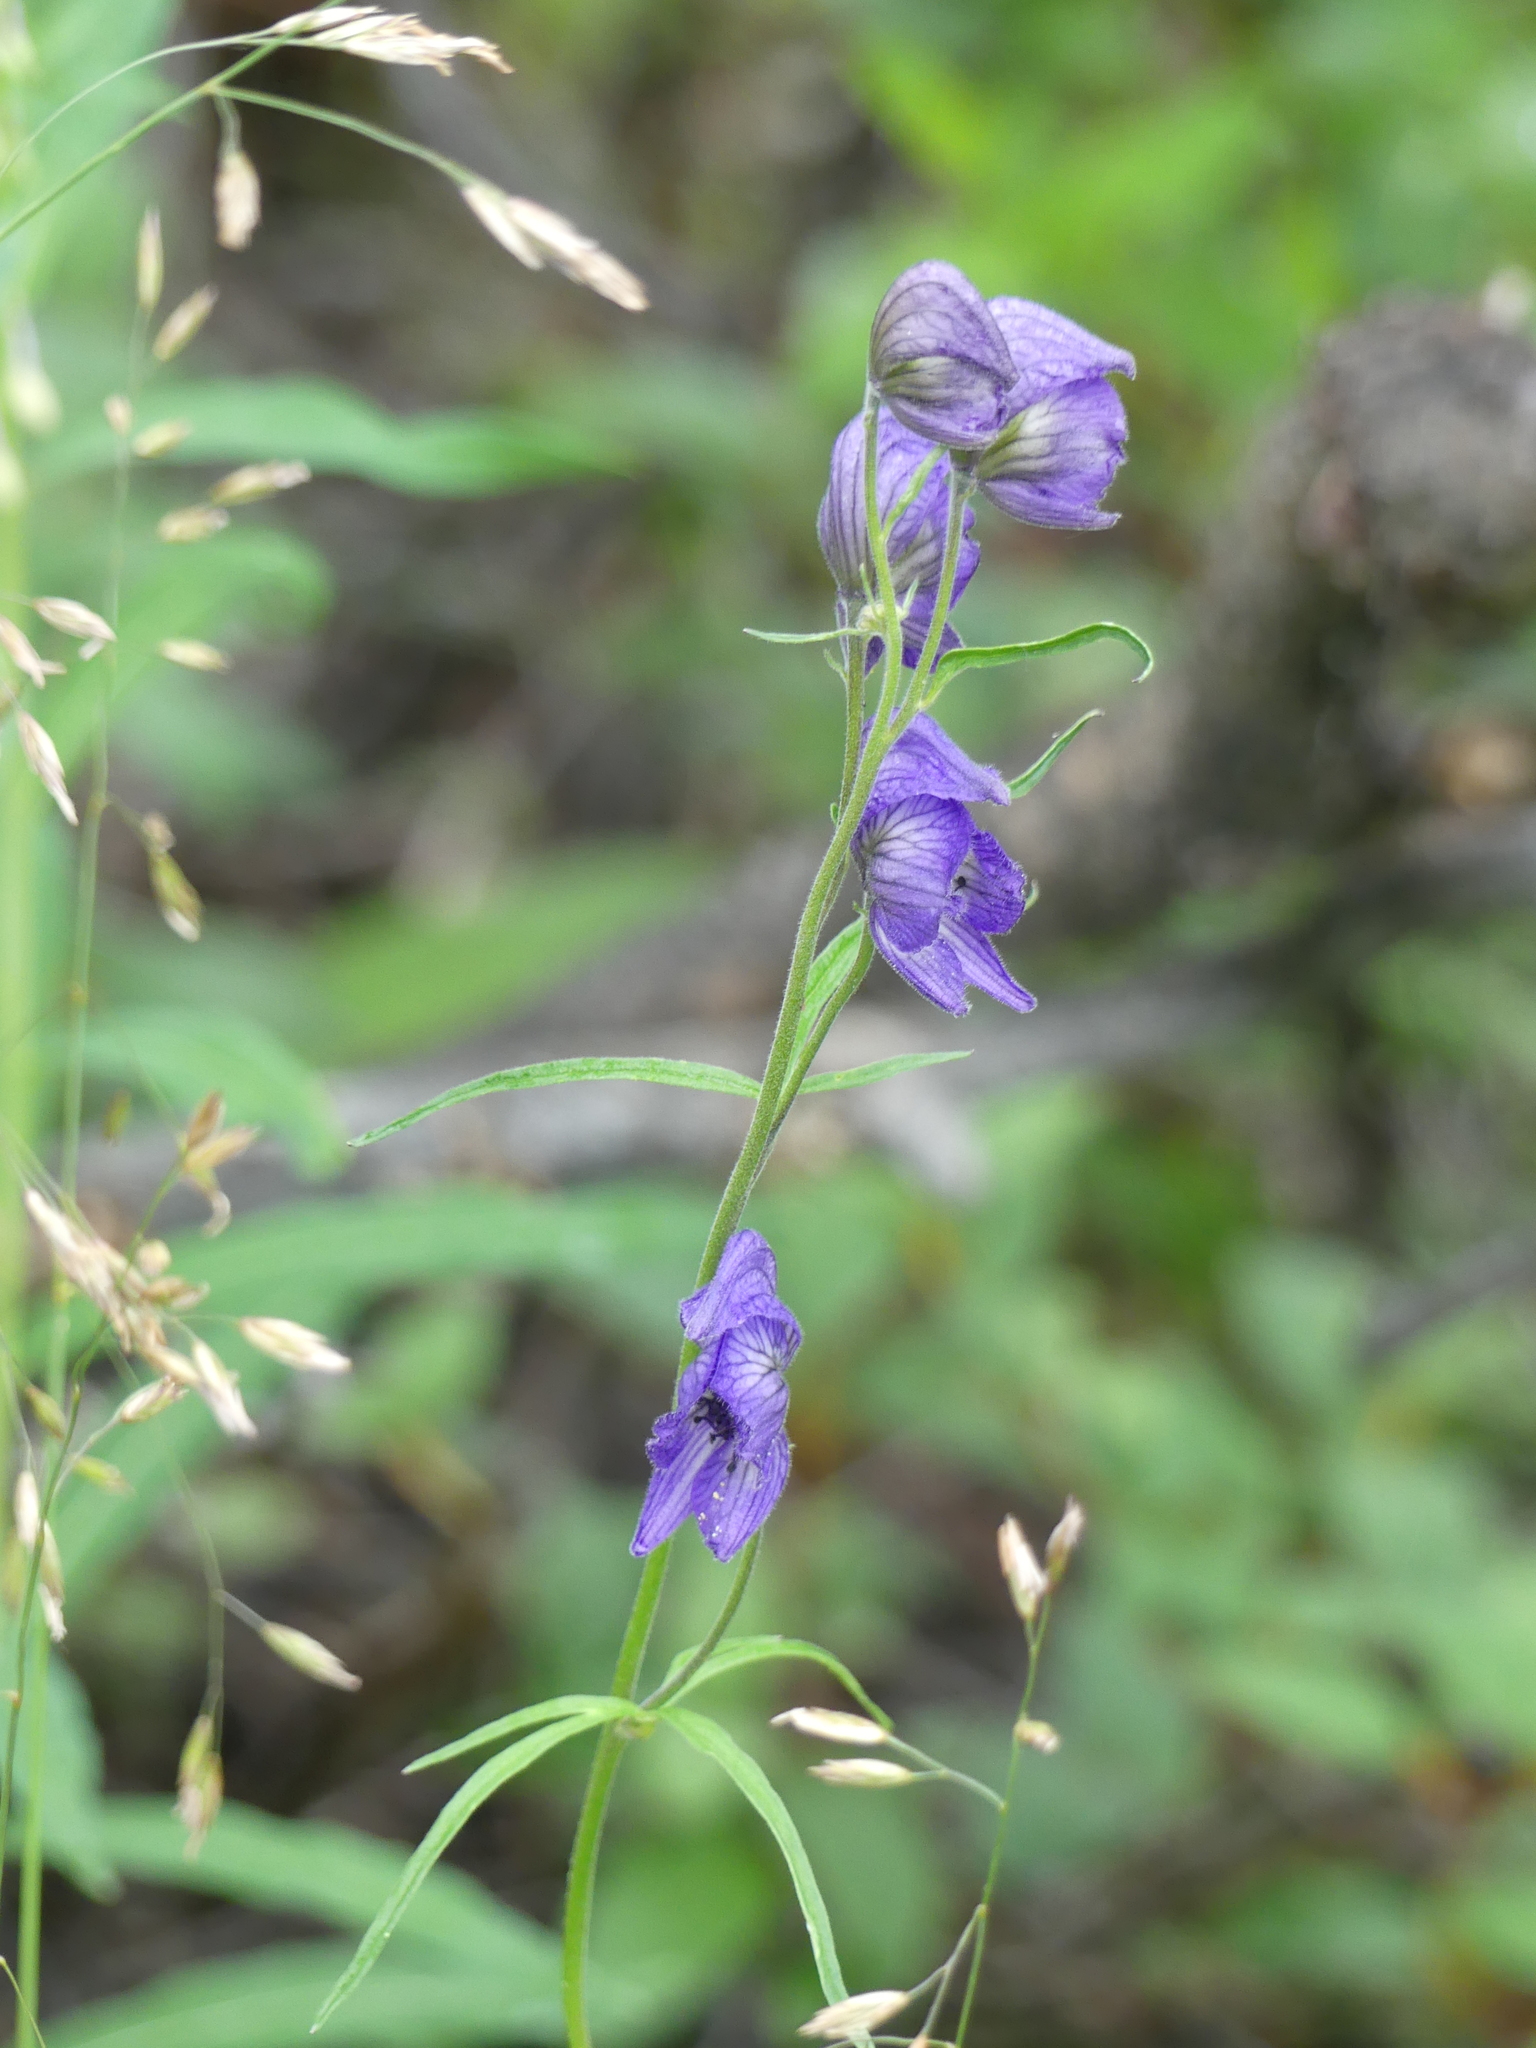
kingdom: Plantae
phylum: Tracheophyta
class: Magnoliopsida
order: Ranunculales
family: Ranunculaceae
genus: Aconitum
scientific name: Aconitum delphiniifolium
